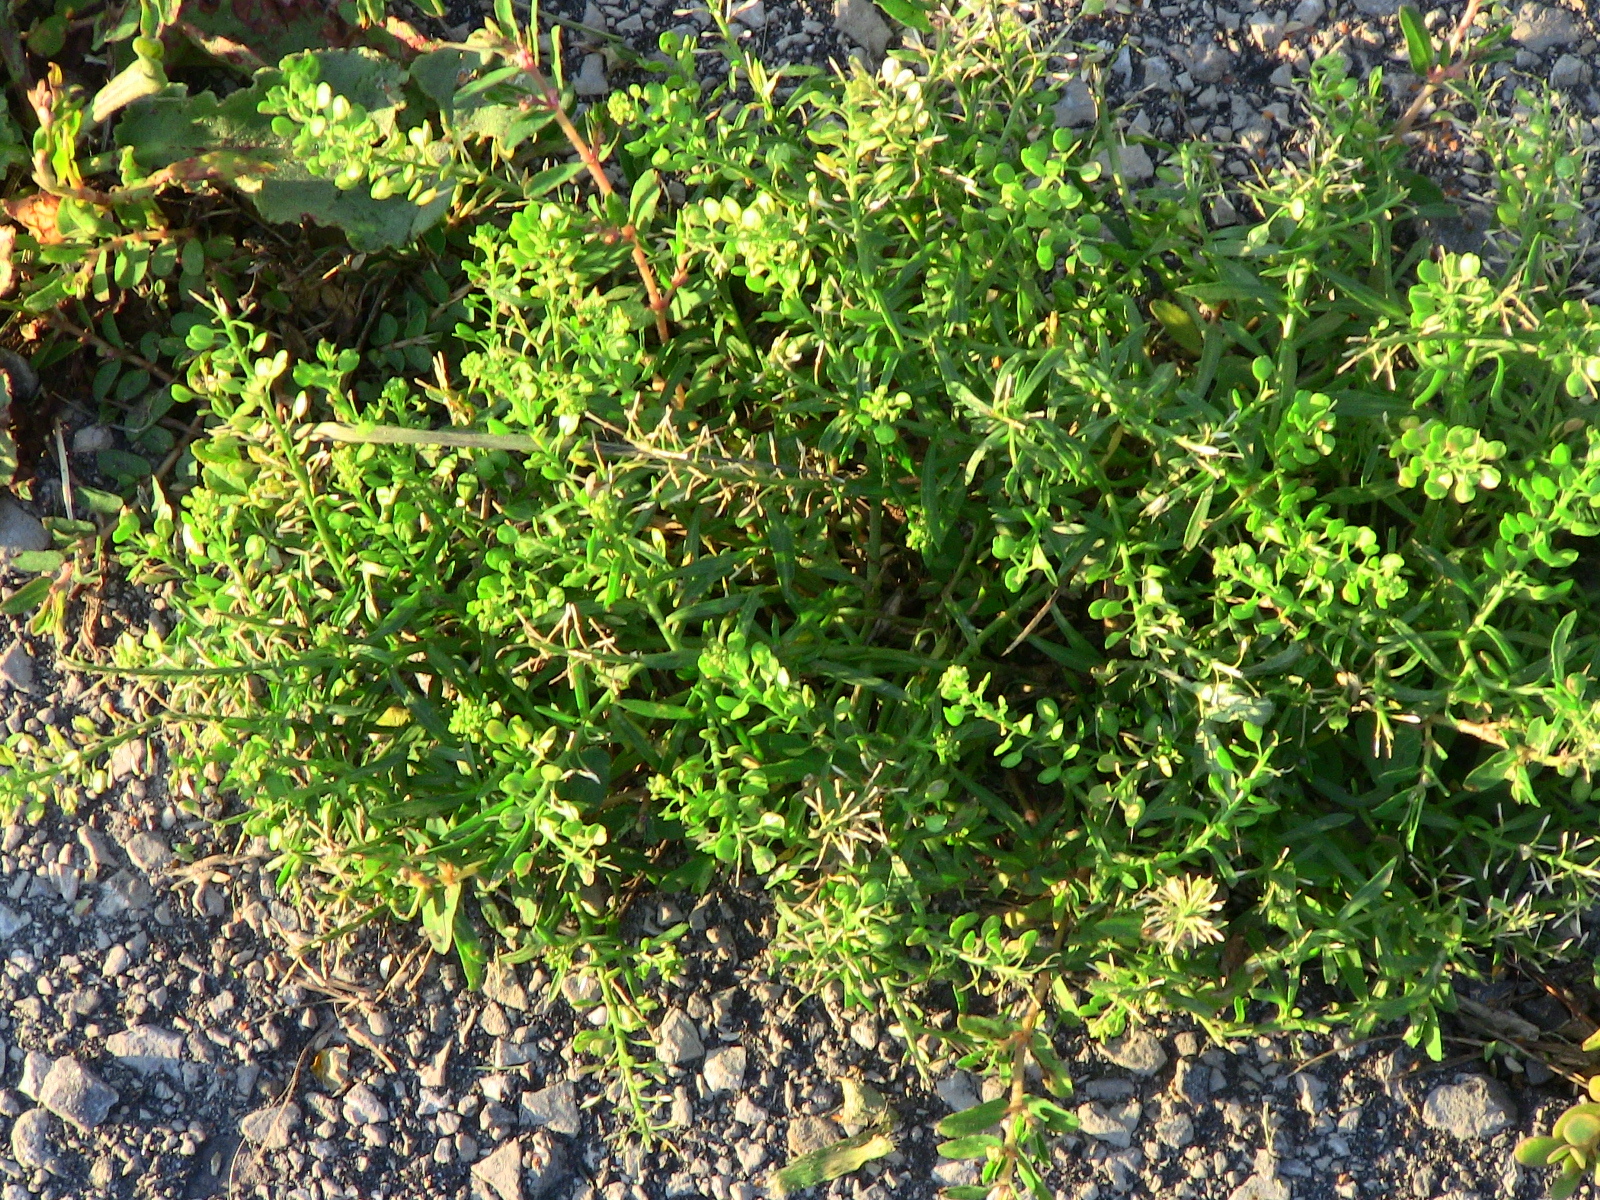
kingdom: Plantae
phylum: Tracheophyta
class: Magnoliopsida
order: Brassicales
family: Brassicaceae
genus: Lepidium
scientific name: Lepidium densiflorum
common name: Miner's pepperwort
